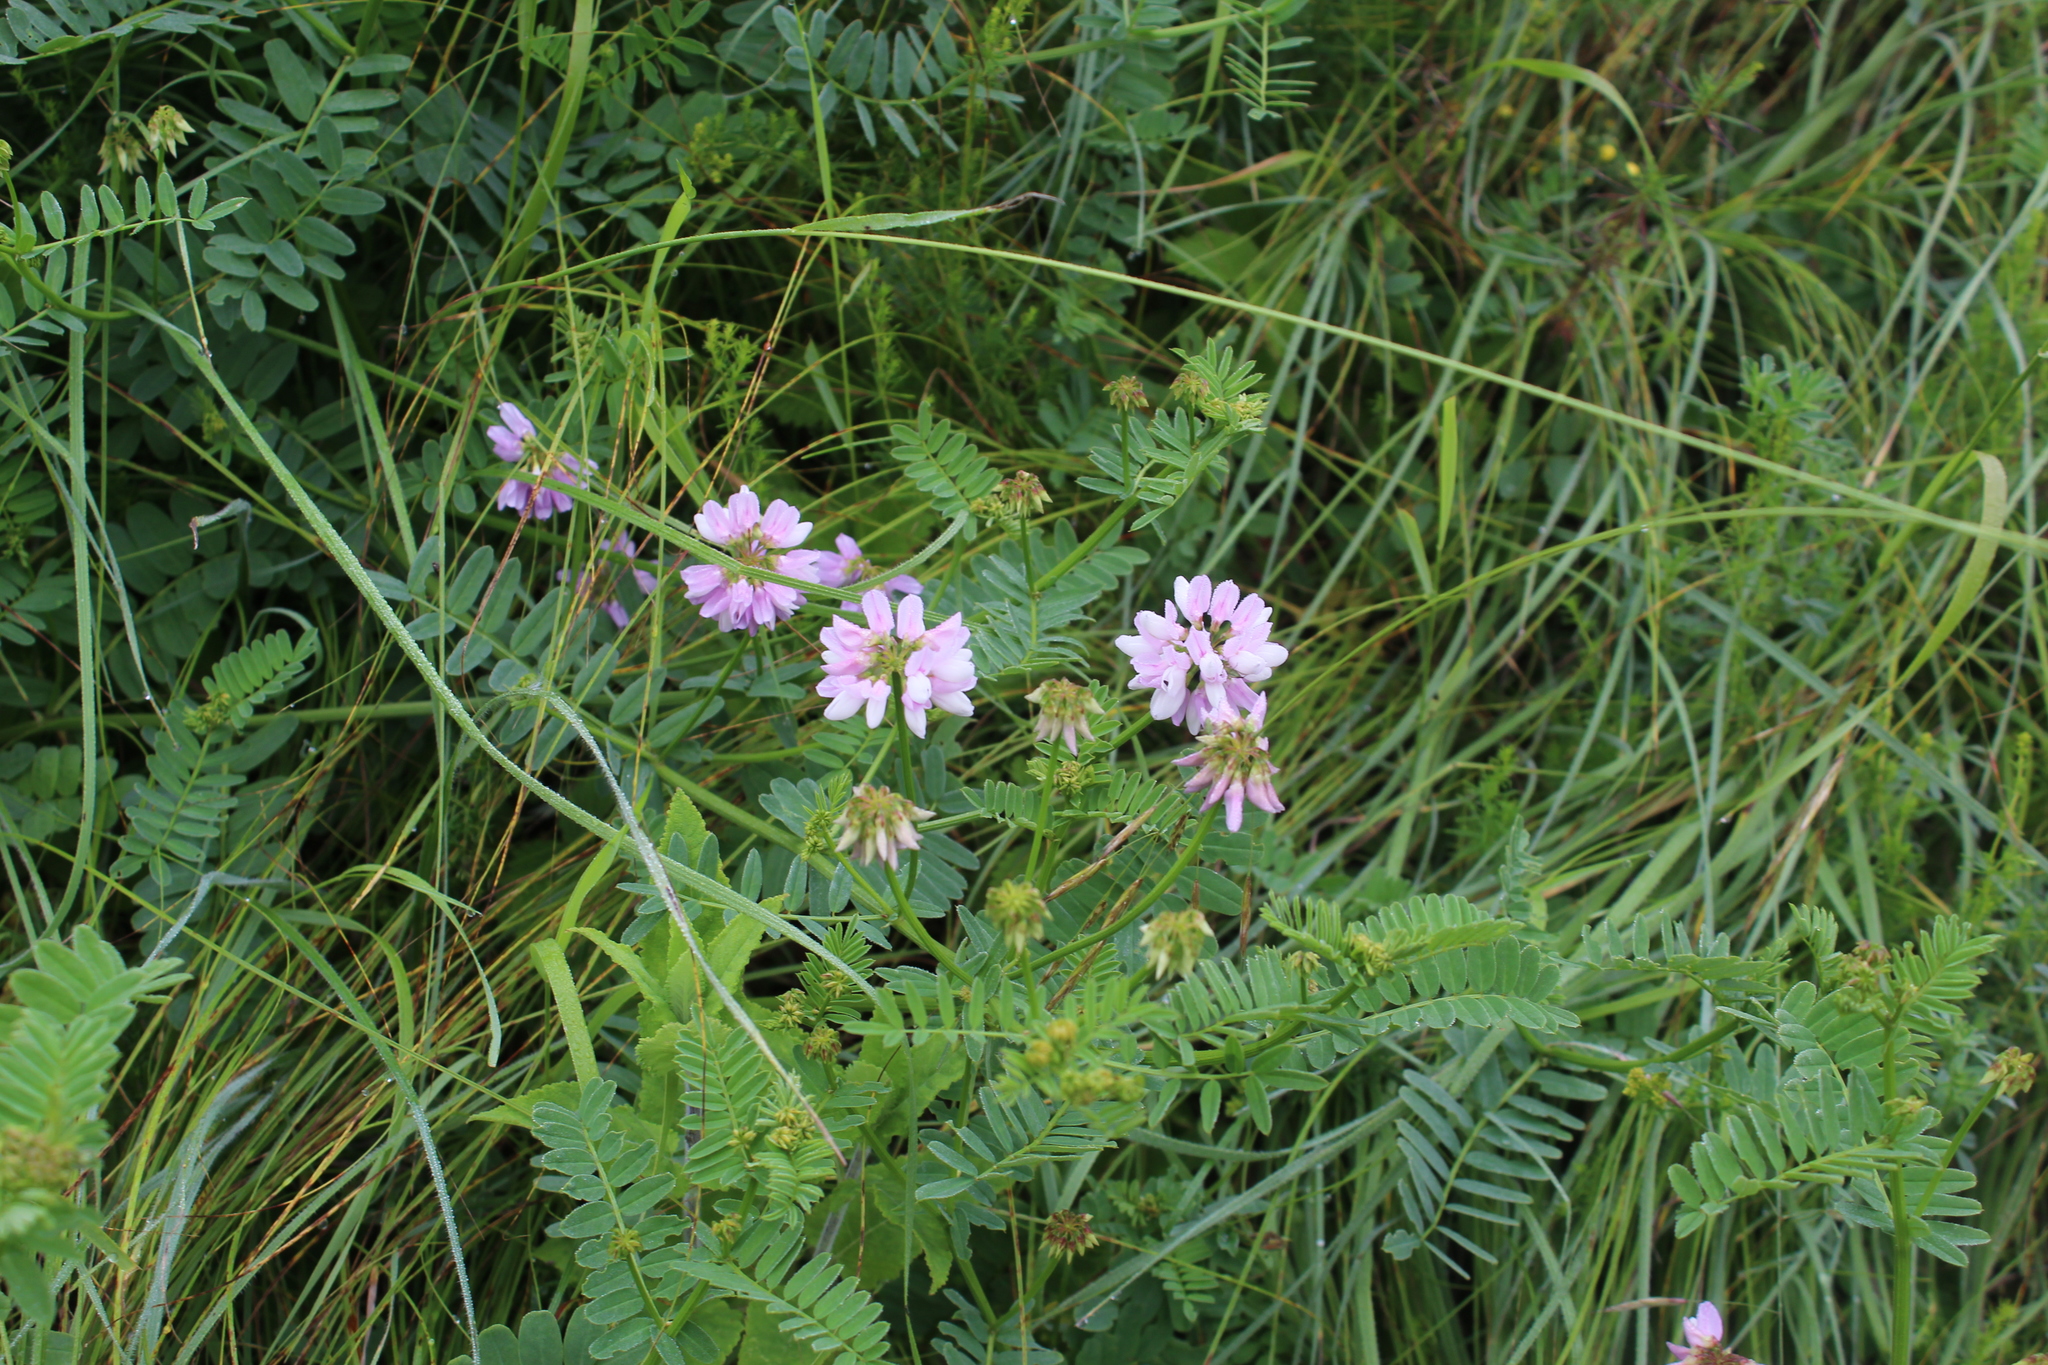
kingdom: Plantae
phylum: Tracheophyta
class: Magnoliopsida
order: Fabales
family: Fabaceae
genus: Coronilla
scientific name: Coronilla varia
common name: Crownvetch
